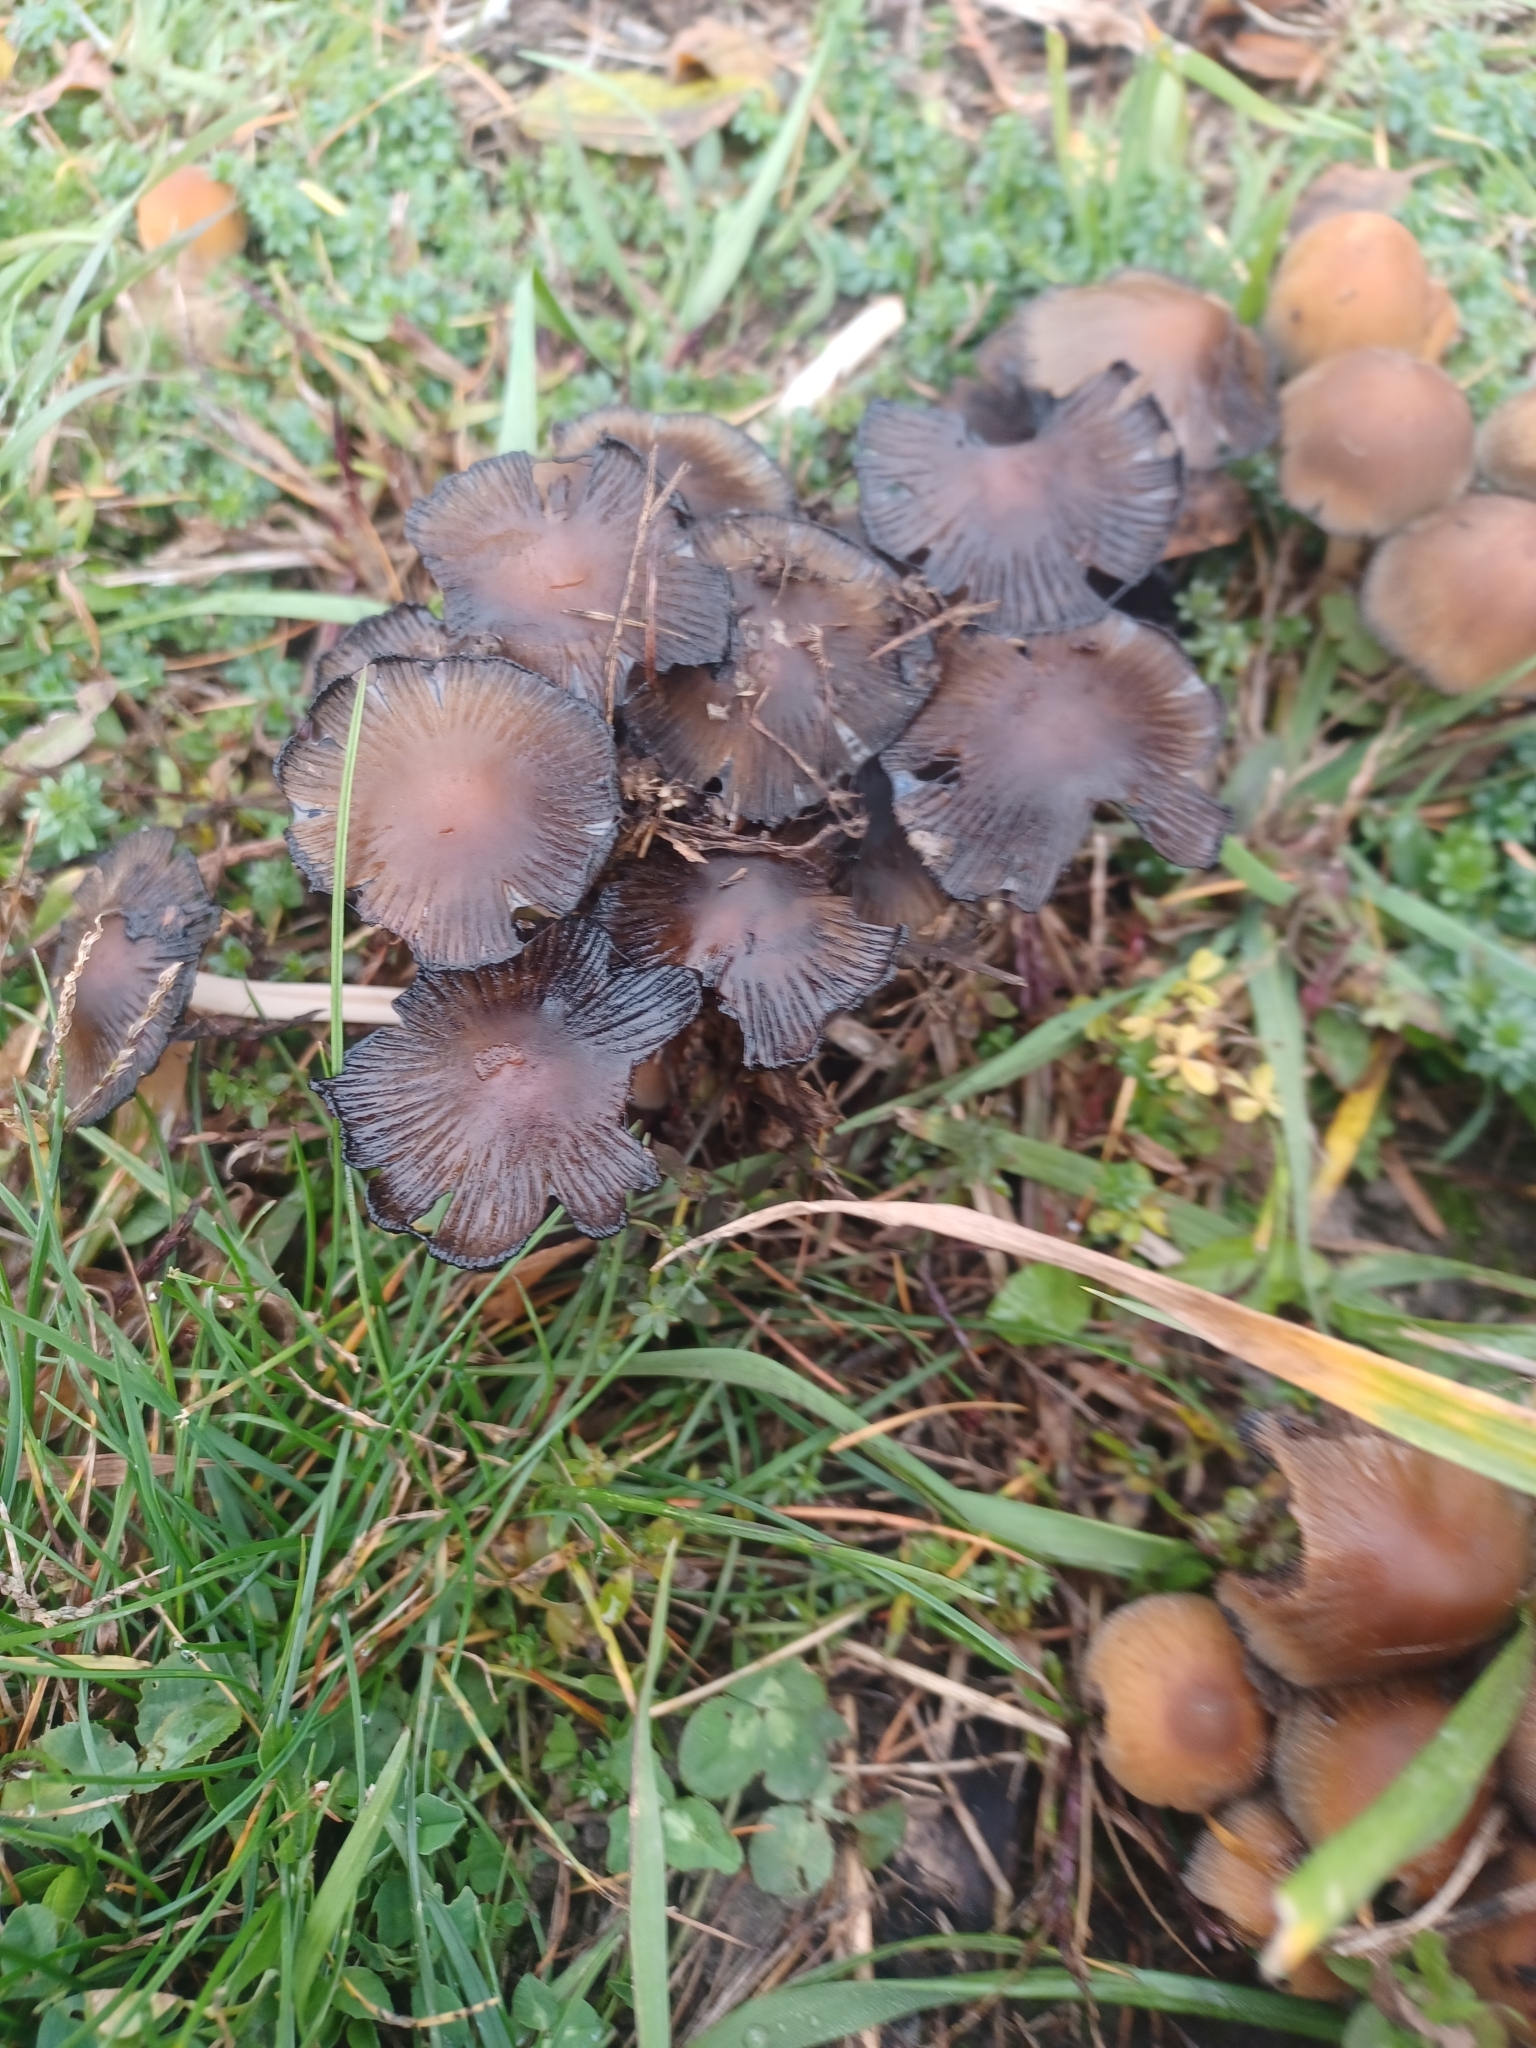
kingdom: Fungi
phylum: Basidiomycota
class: Agaricomycetes
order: Agaricales
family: Psathyrellaceae
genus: Coprinellus
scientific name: Coprinellus micaceus
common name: Glistening ink-cap
